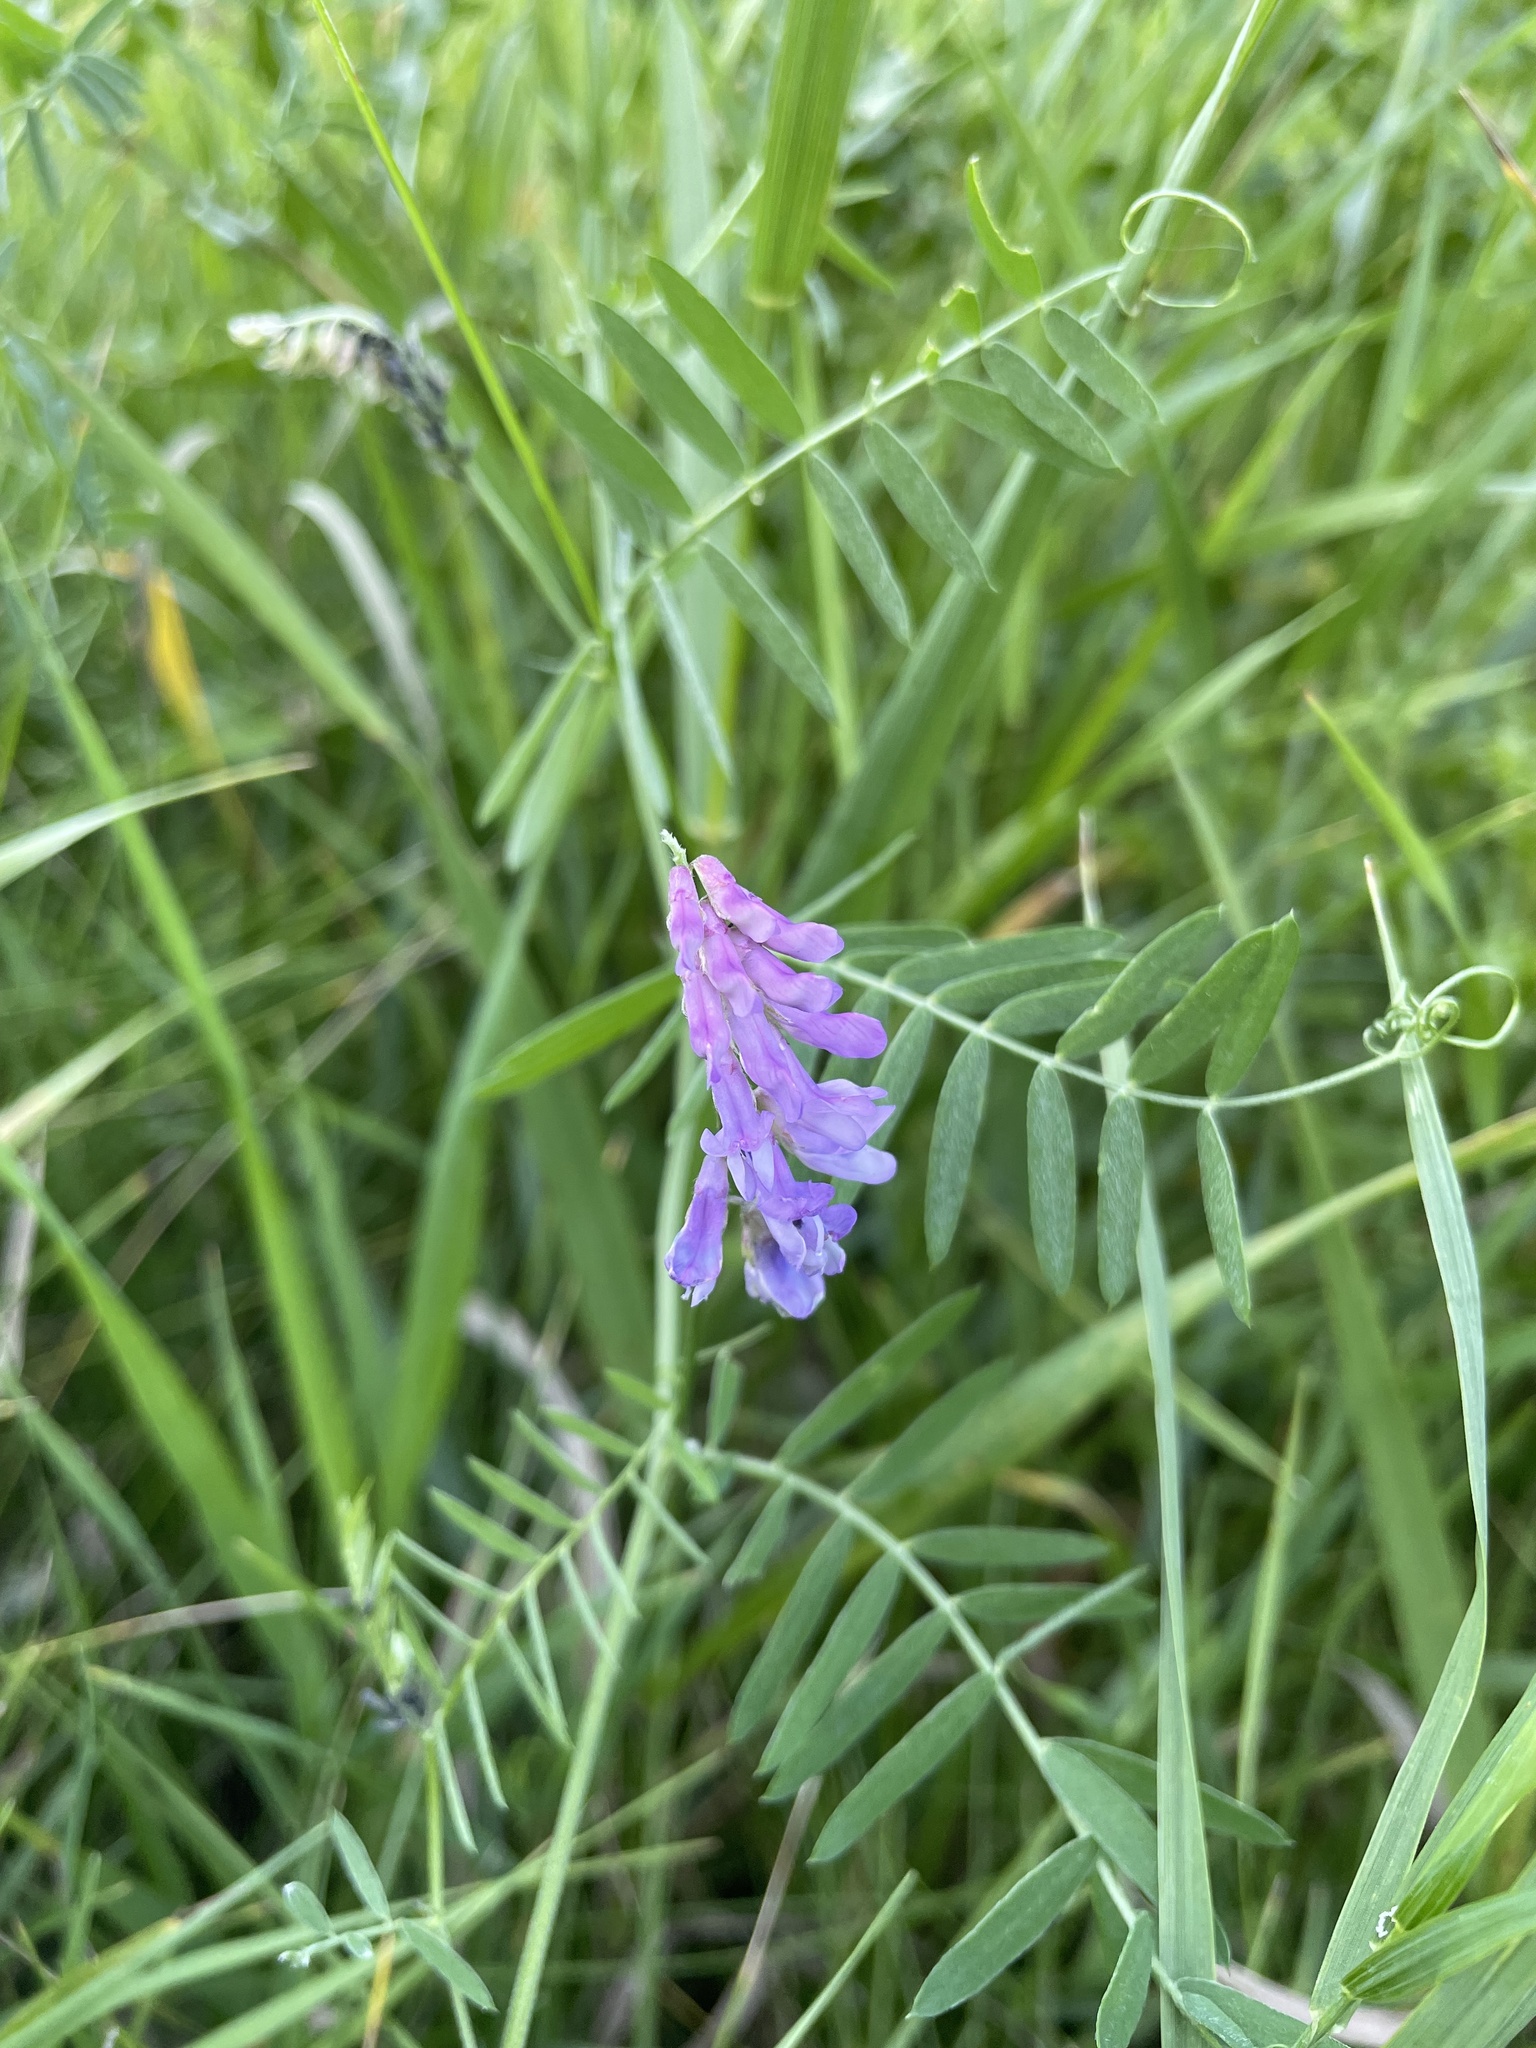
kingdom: Plantae
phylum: Tracheophyta
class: Magnoliopsida
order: Fabales
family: Fabaceae
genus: Vicia
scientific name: Vicia cracca
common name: Bird vetch
